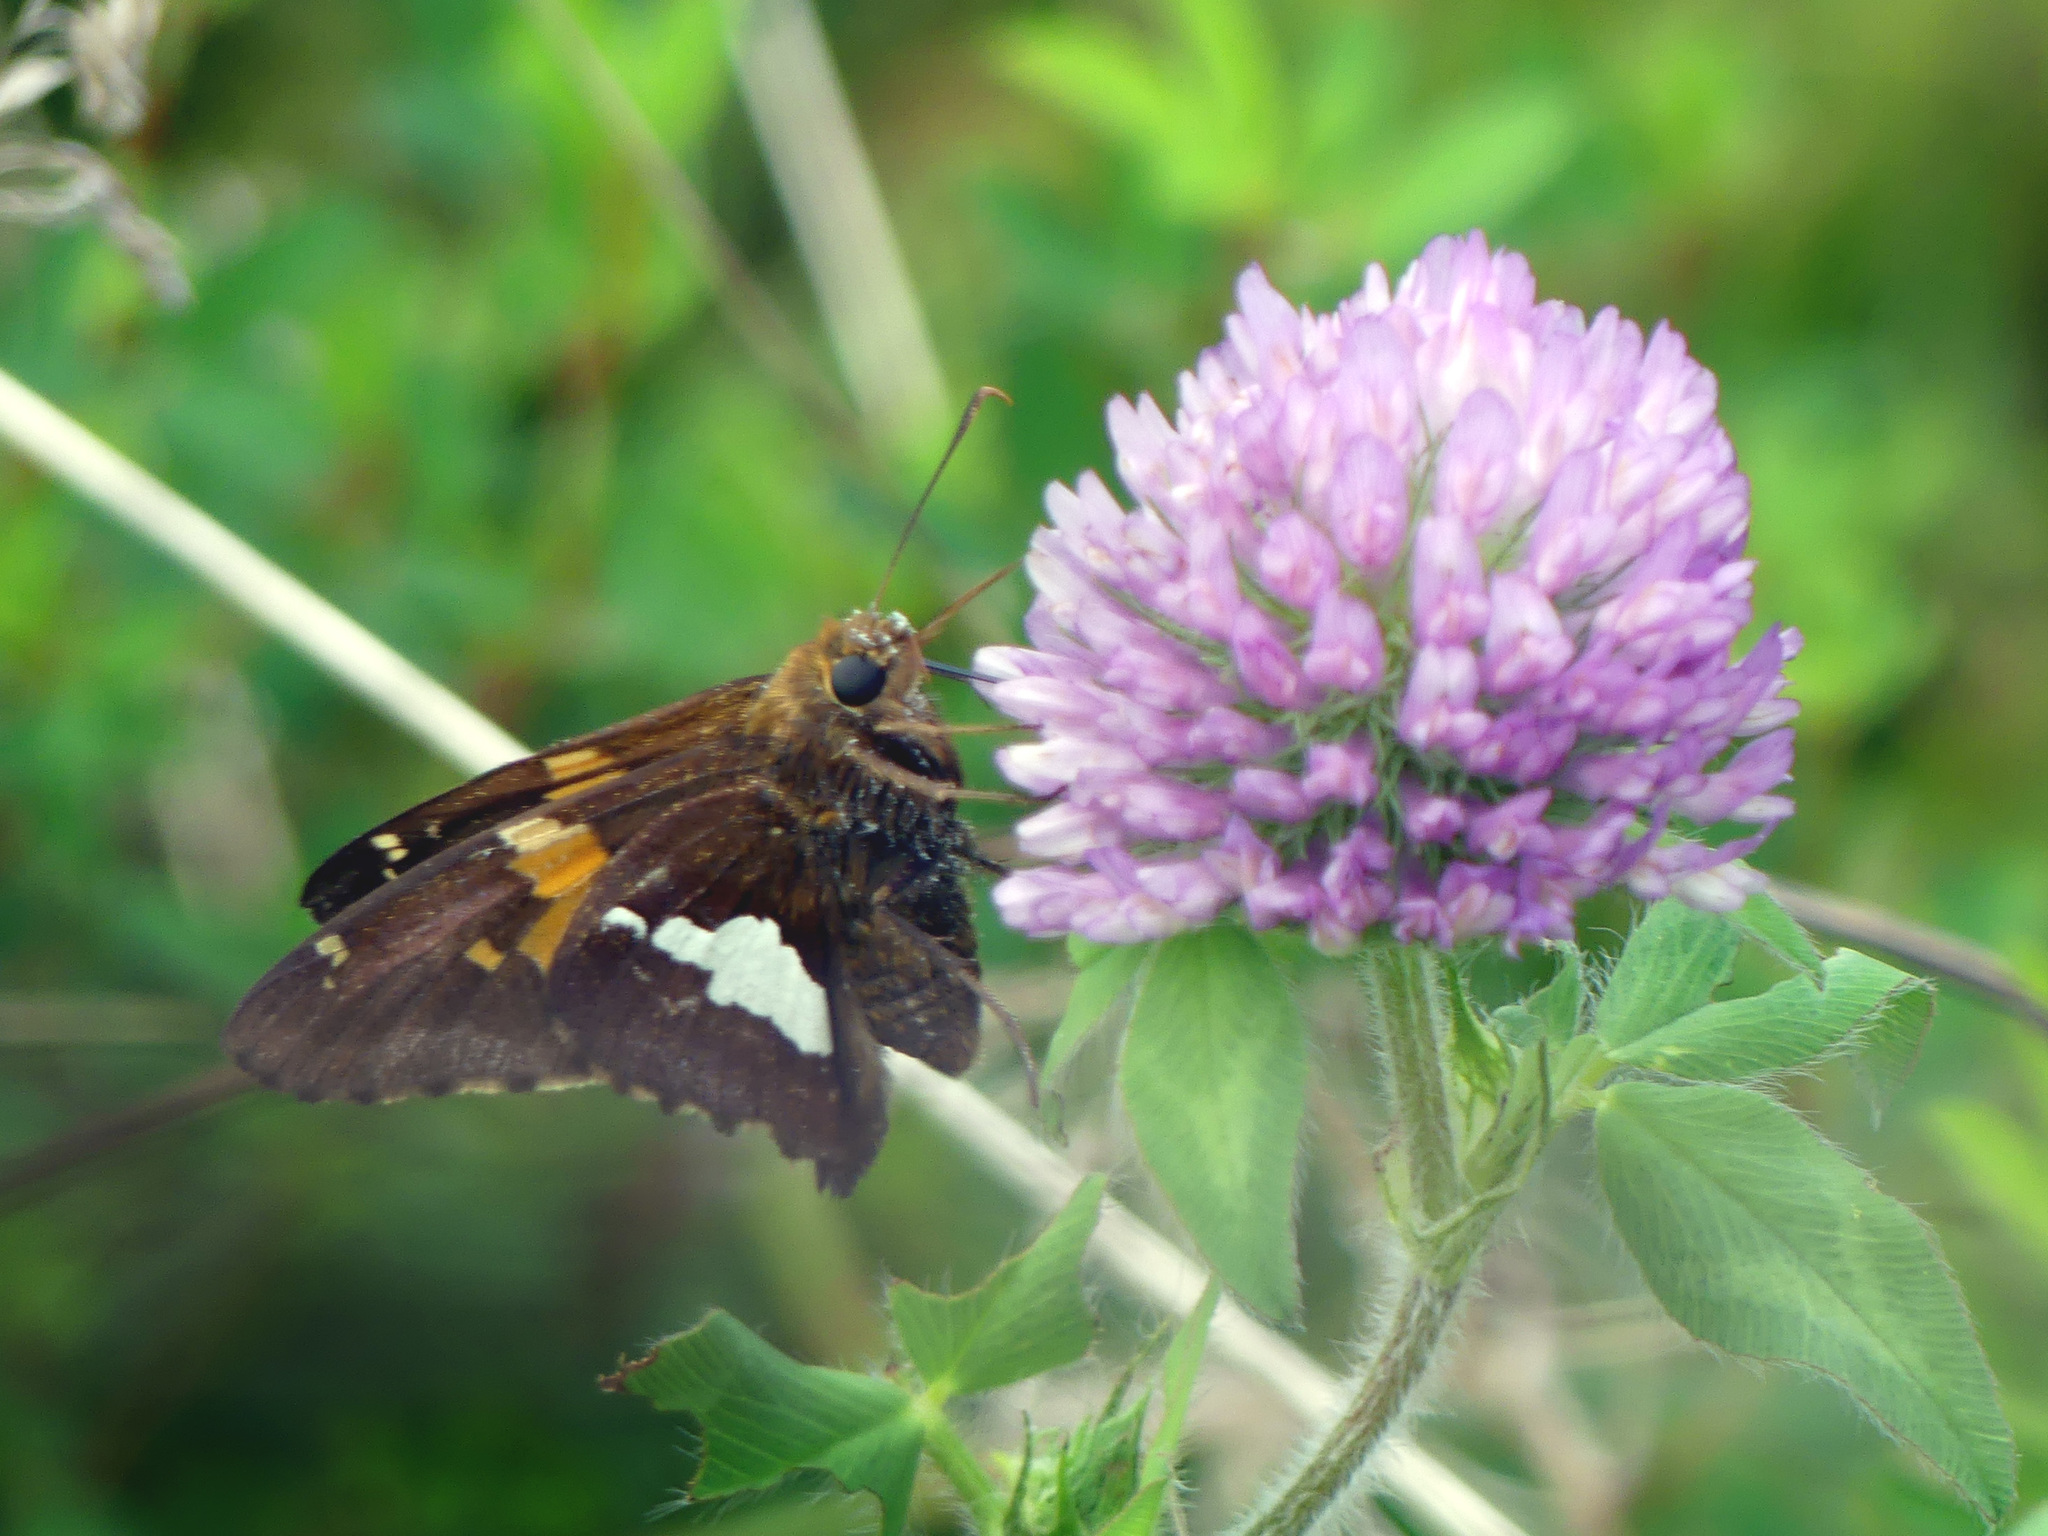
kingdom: Animalia
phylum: Arthropoda
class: Insecta
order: Lepidoptera
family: Hesperiidae
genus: Epargyreus
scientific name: Epargyreus clarus
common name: Silver-spotted skipper
